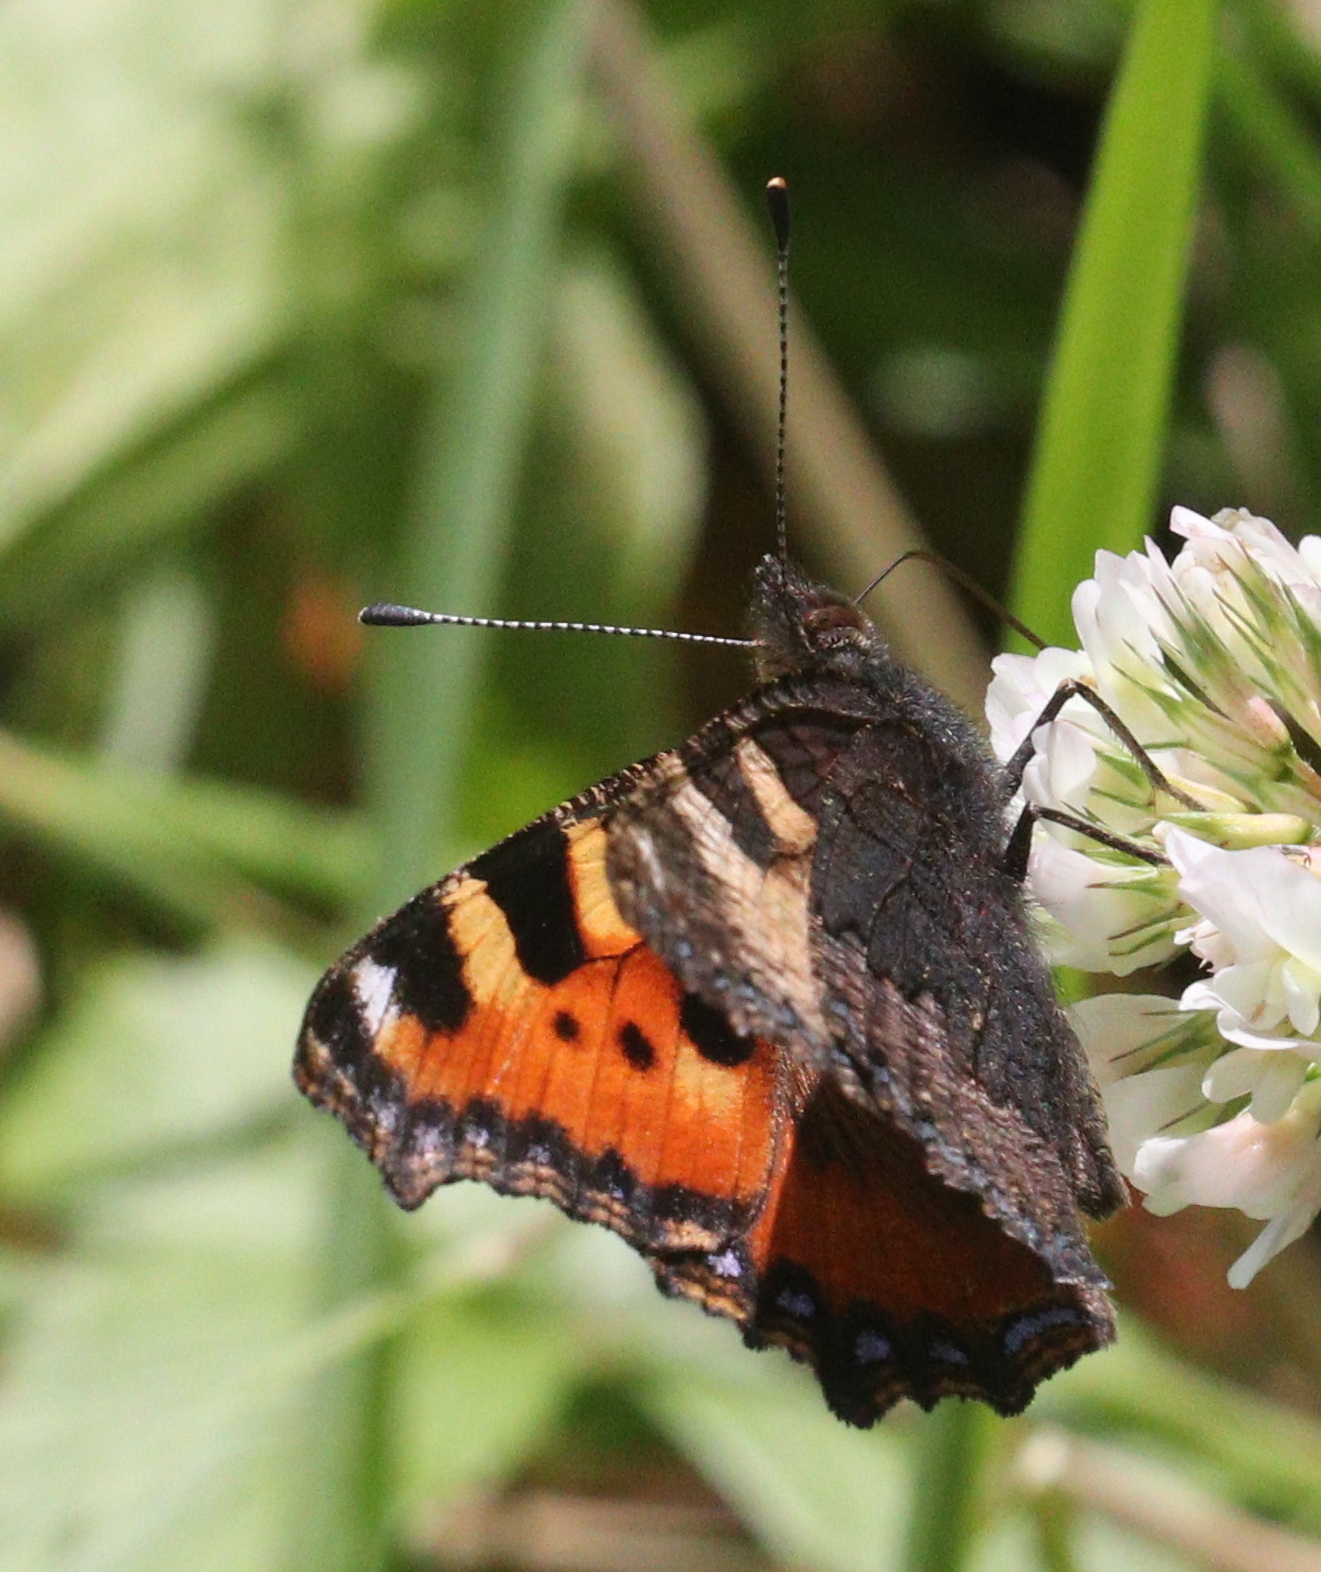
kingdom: Animalia
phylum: Arthropoda
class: Insecta
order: Lepidoptera
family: Nymphalidae
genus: Aglais
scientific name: Aglais urticae
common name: Small tortoiseshell
